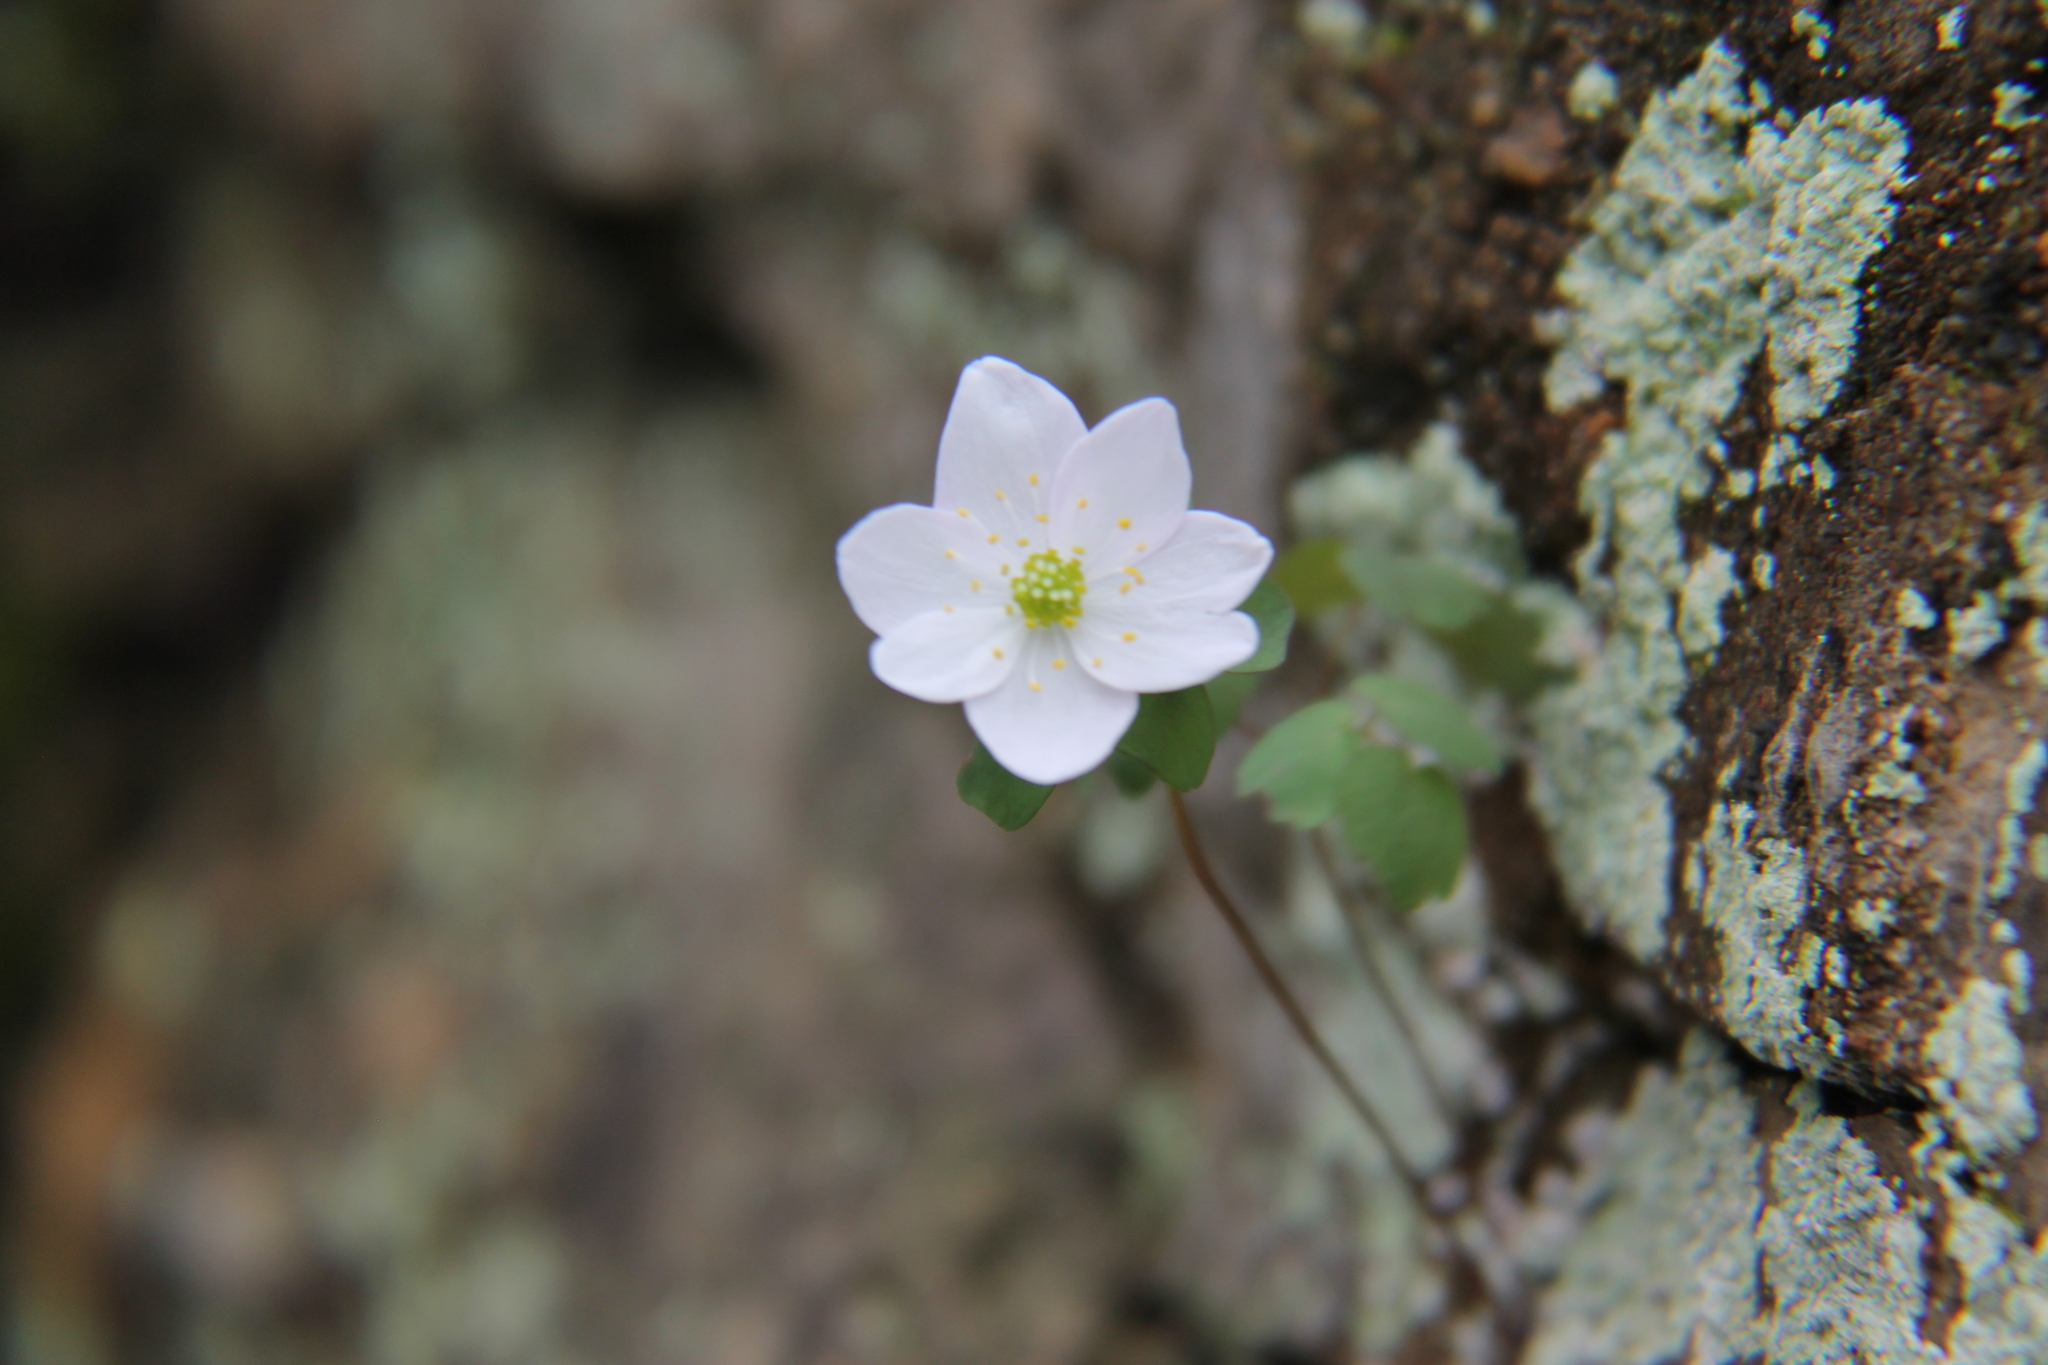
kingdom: Plantae
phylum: Tracheophyta
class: Magnoliopsida
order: Ranunculales
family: Ranunculaceae
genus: Thalictrum
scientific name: Thalictrum thalictroides
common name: Rue-anemone
